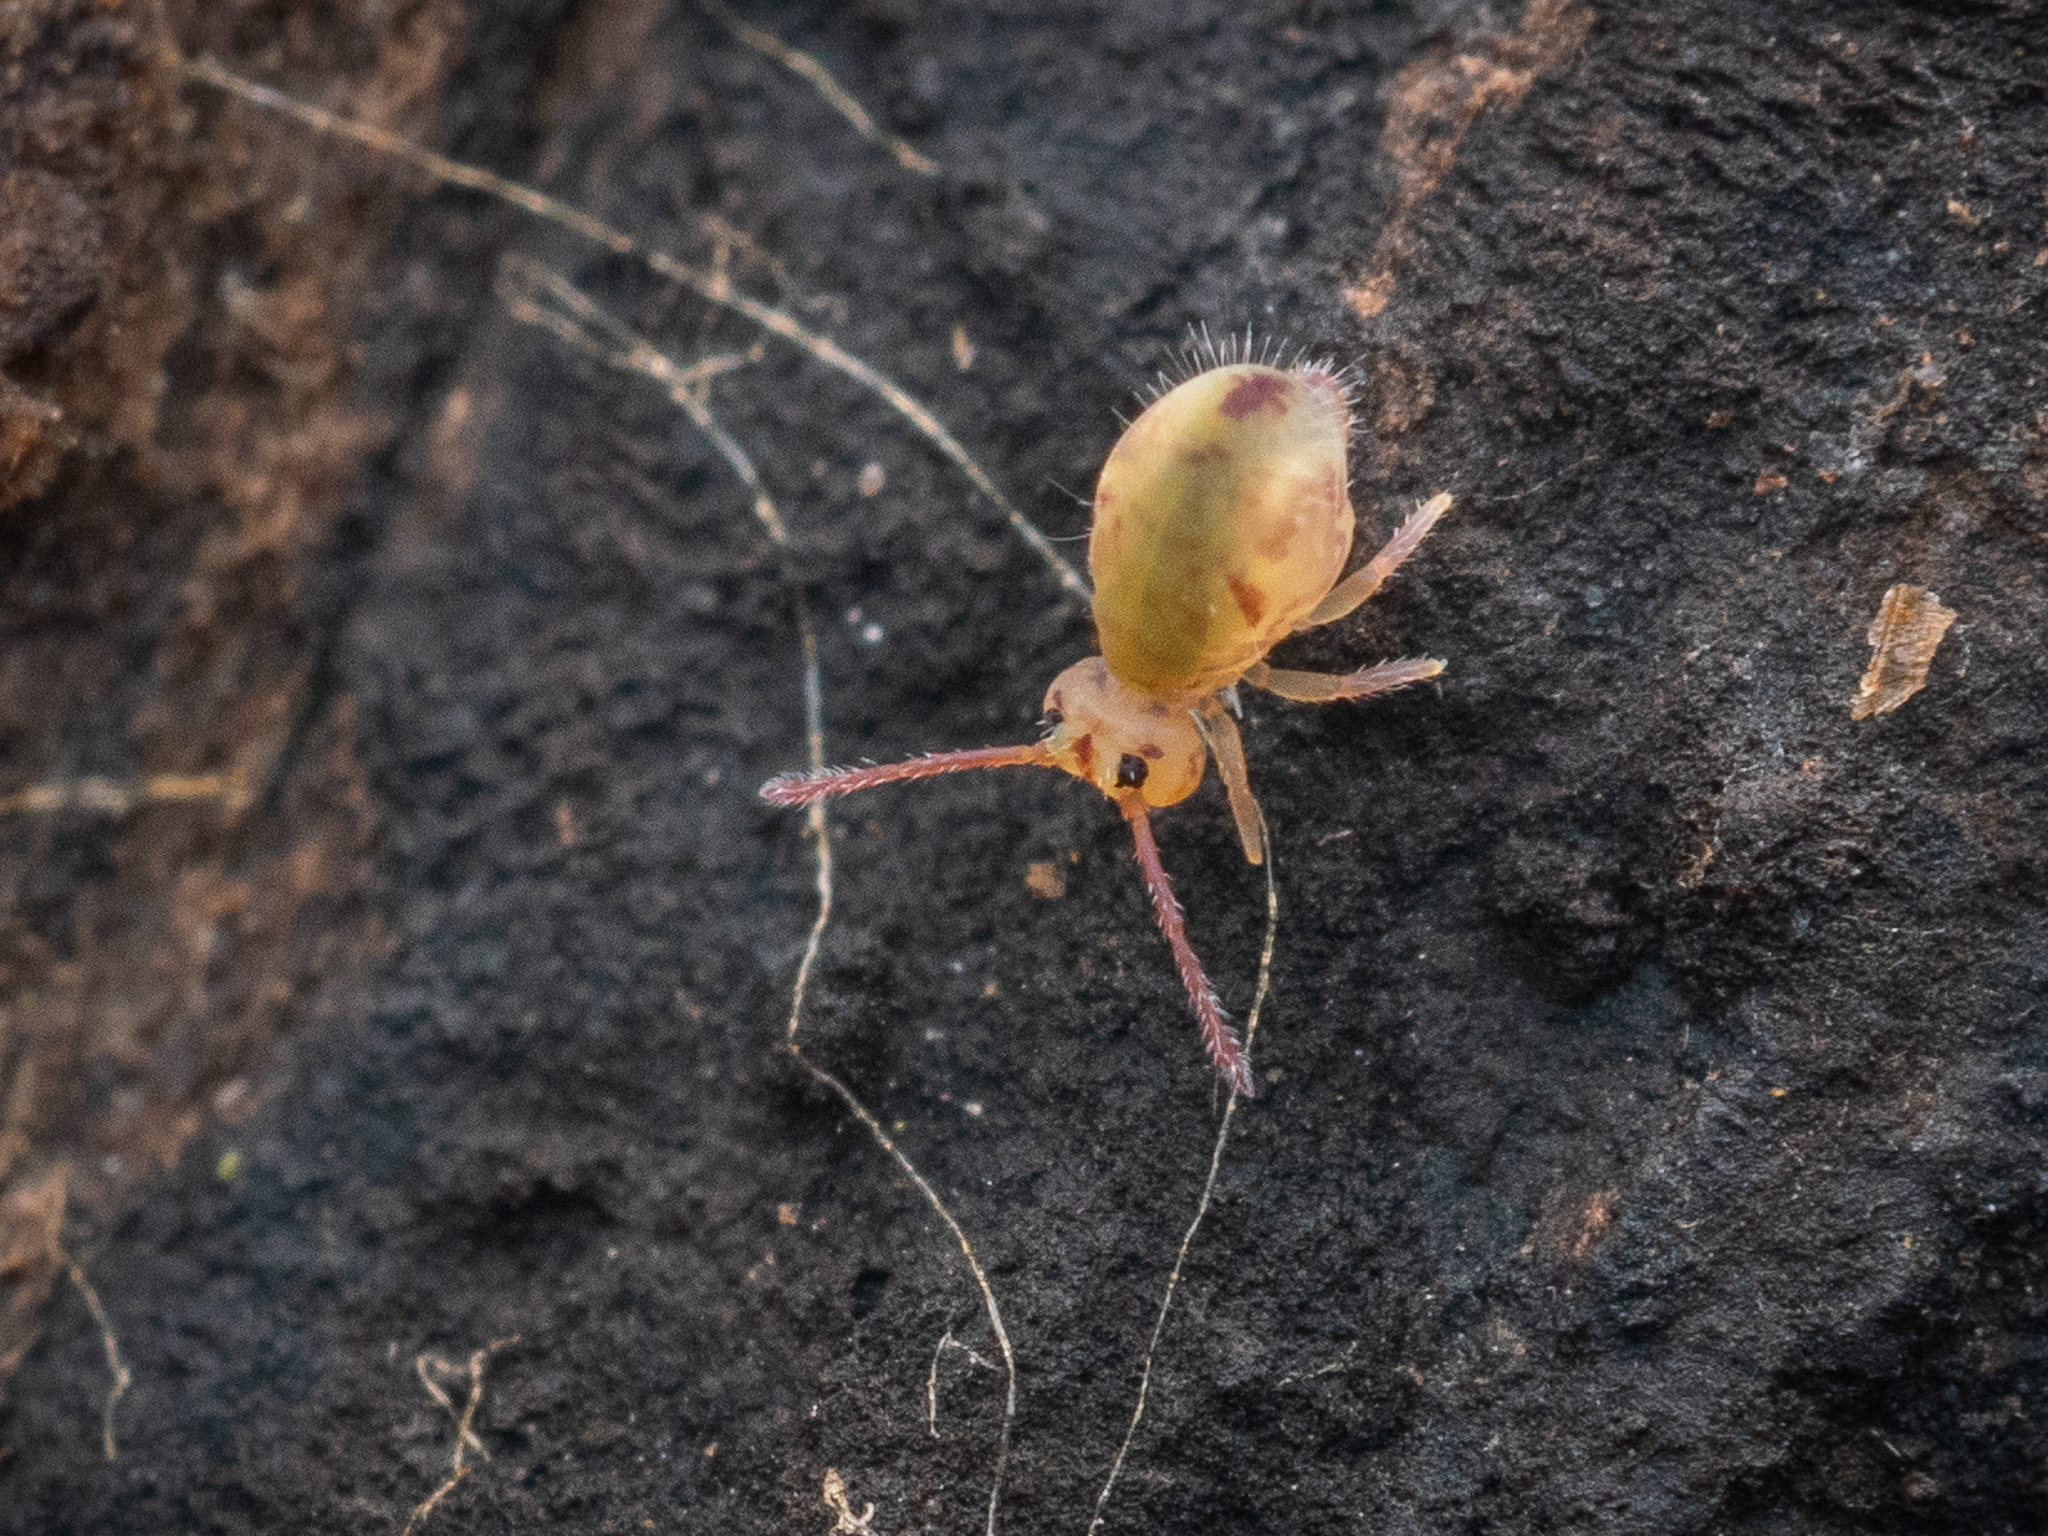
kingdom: Animalia
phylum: Arthropoda
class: Collembola
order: Symphypleona
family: Dicyrtomidae
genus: Dicyrtomina
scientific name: Dicyrtomina ornata
